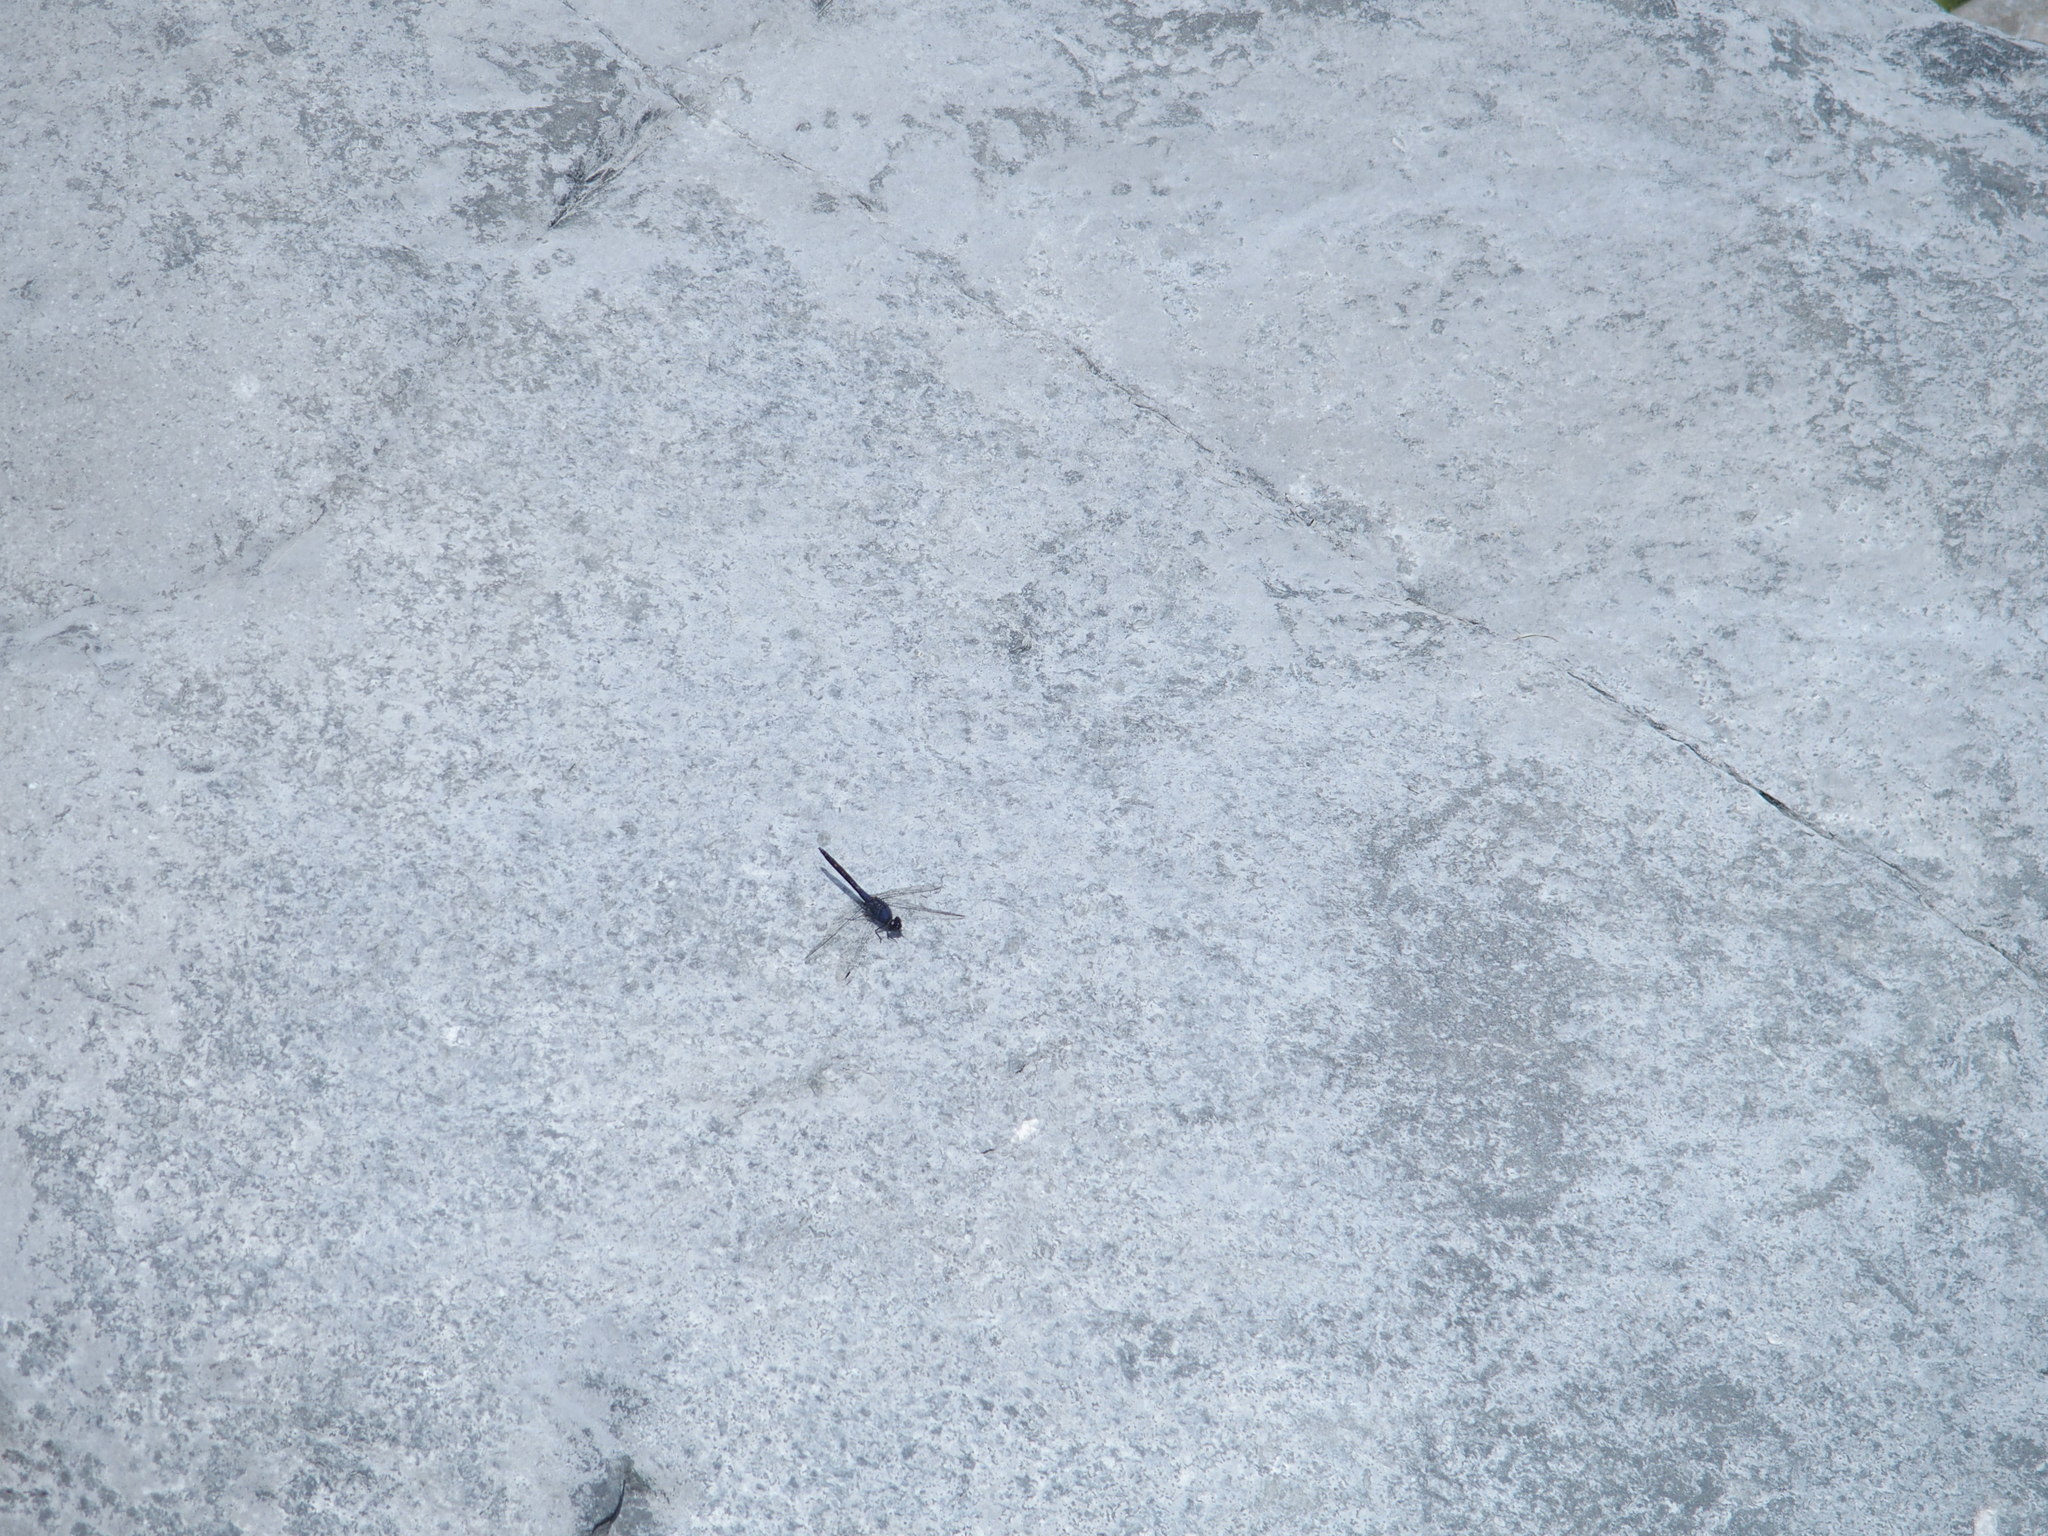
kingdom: Animalia
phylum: Arthropoda
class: Insecta
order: Odonata
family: Libellulidae
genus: Trithemis
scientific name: Trithemis festiva
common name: Indigo dropwing
